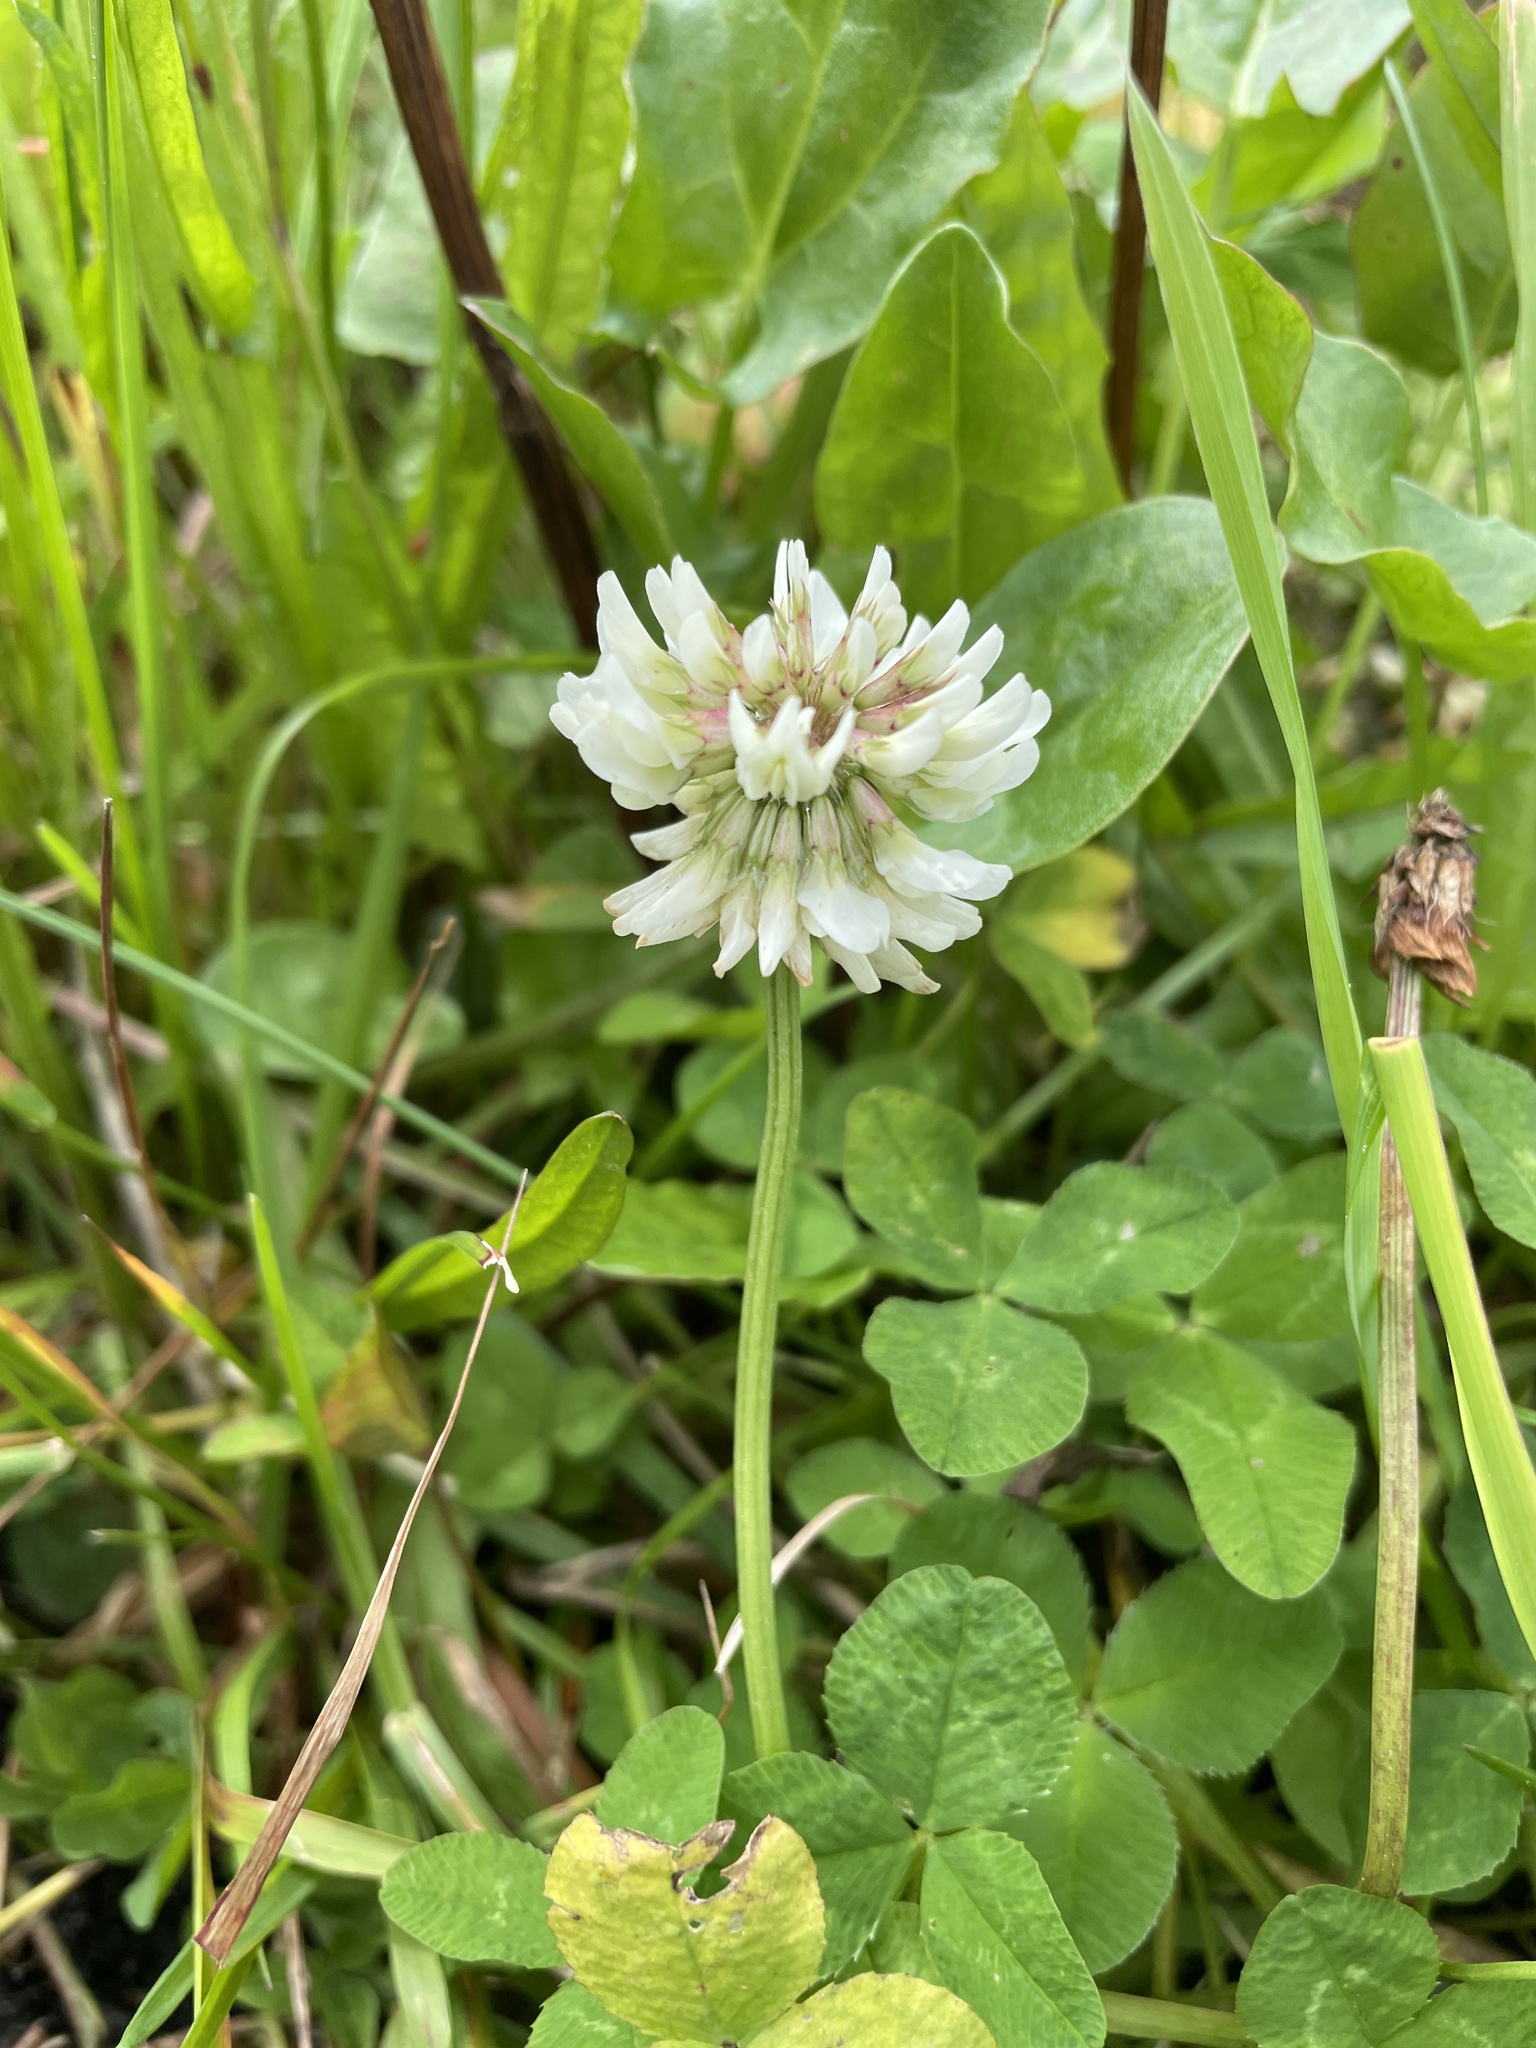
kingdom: Plantae
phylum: Tracheophyta
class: Magnoliopsida
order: Fabales
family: Fabaceae
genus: Trifolium
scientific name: Trifolium repens
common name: White clover
